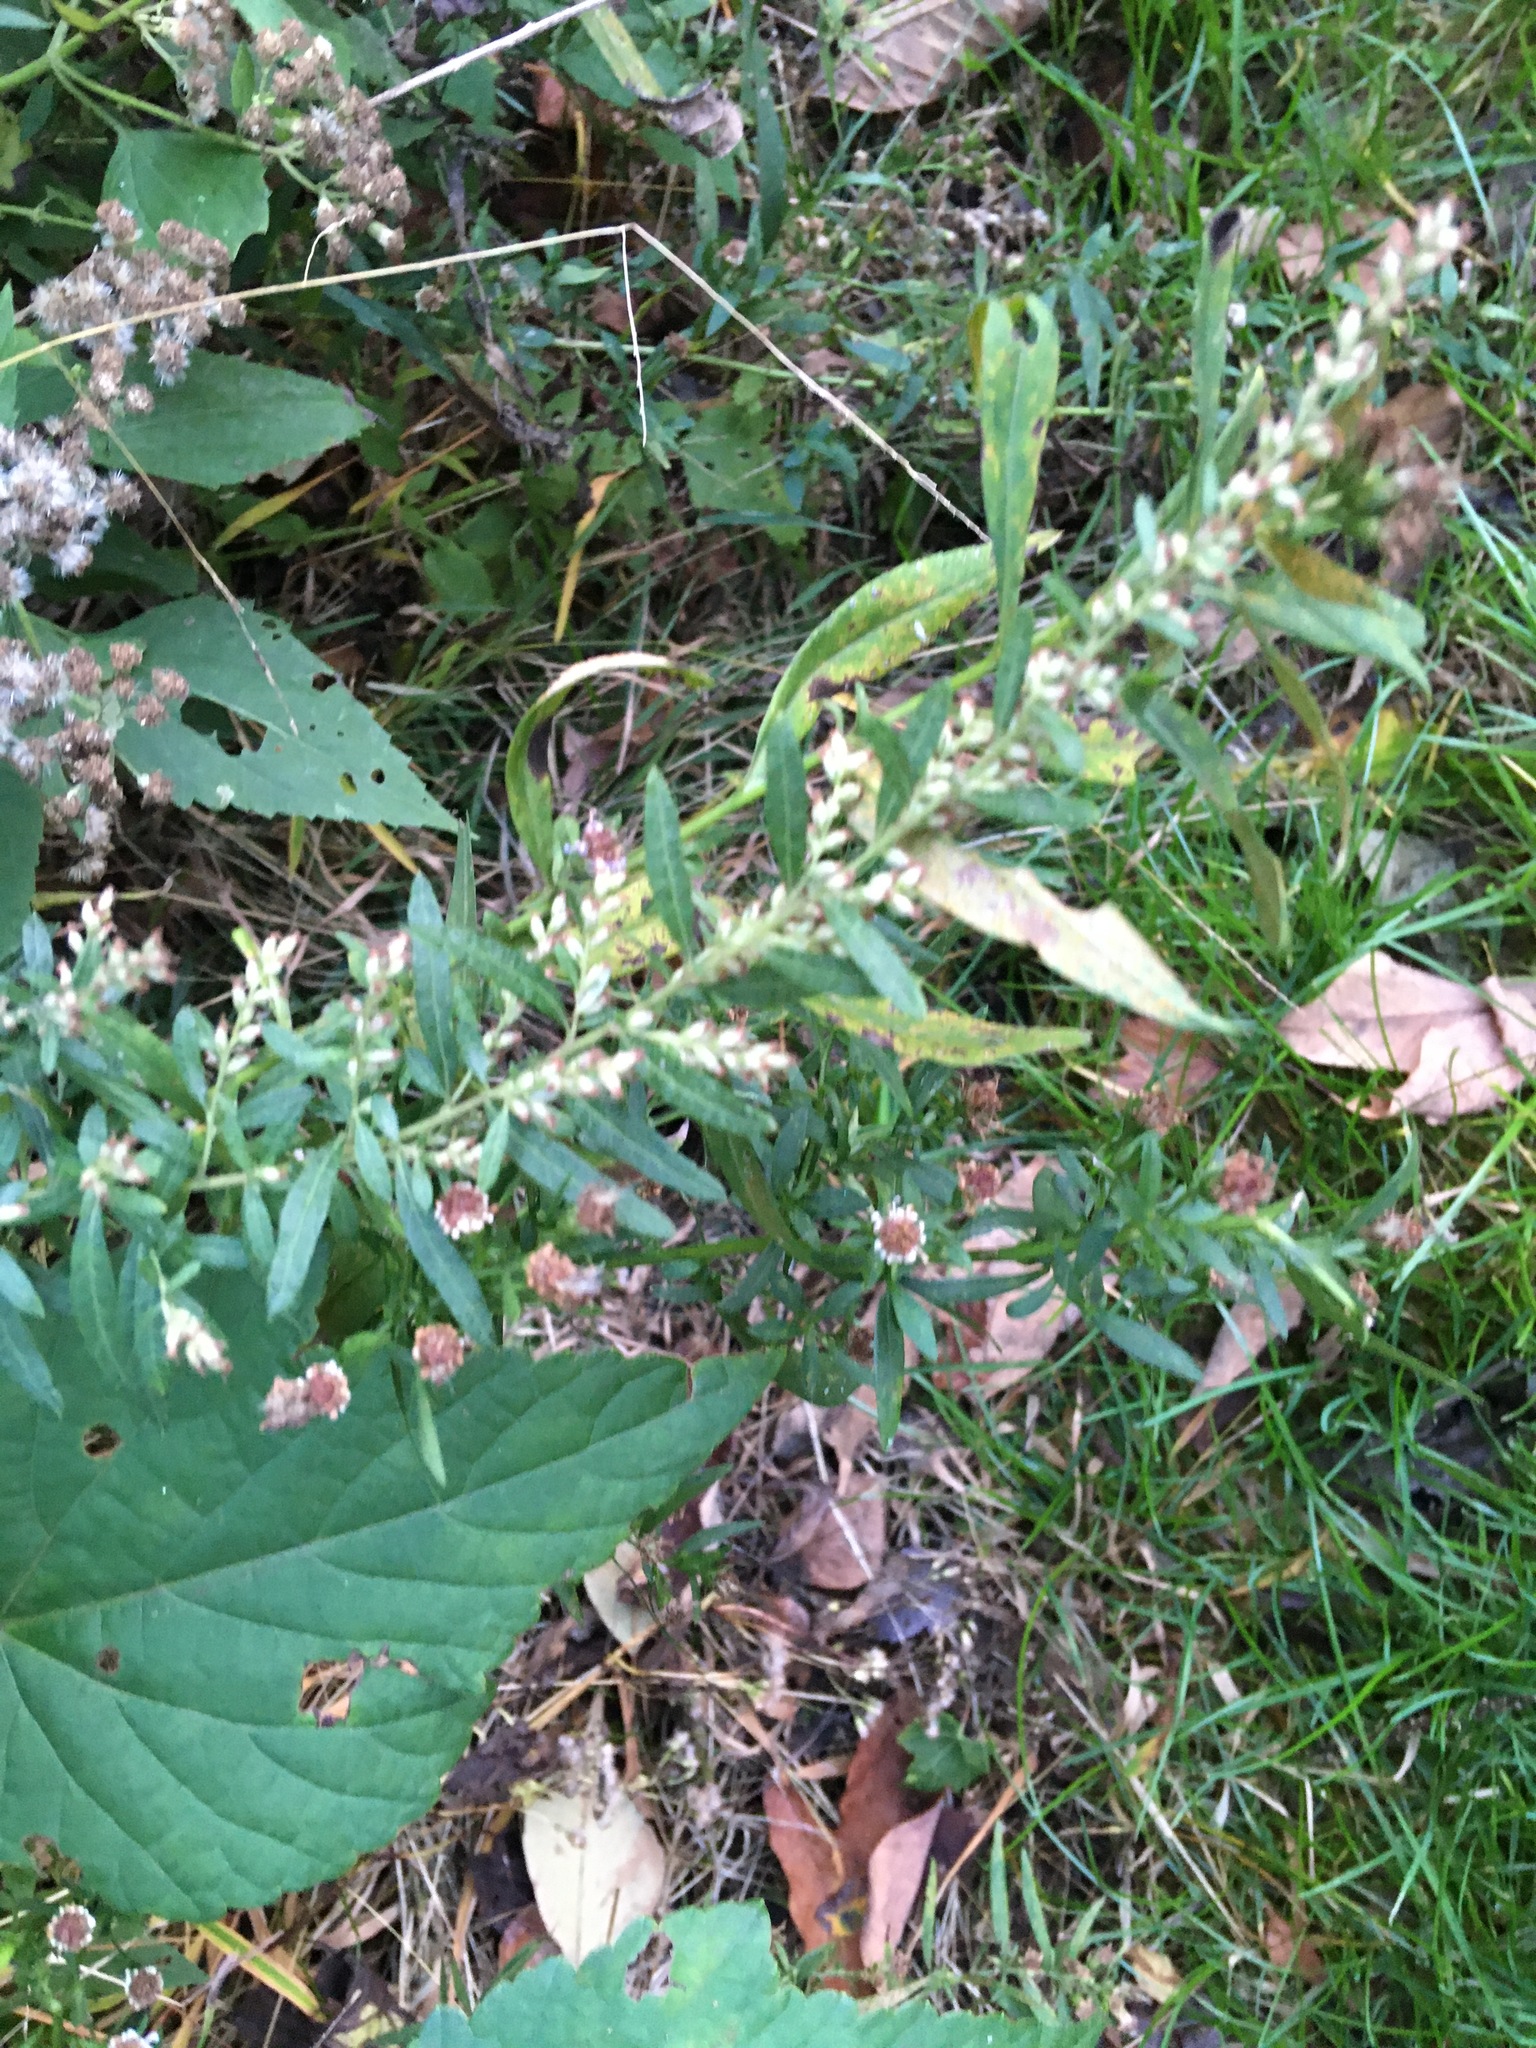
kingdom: Plantae
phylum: Tracheophyta
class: Magnoliopsida
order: Asterales
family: Asteraceae
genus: Artemisia
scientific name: Artemisia vulgaris
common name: Mugwort
